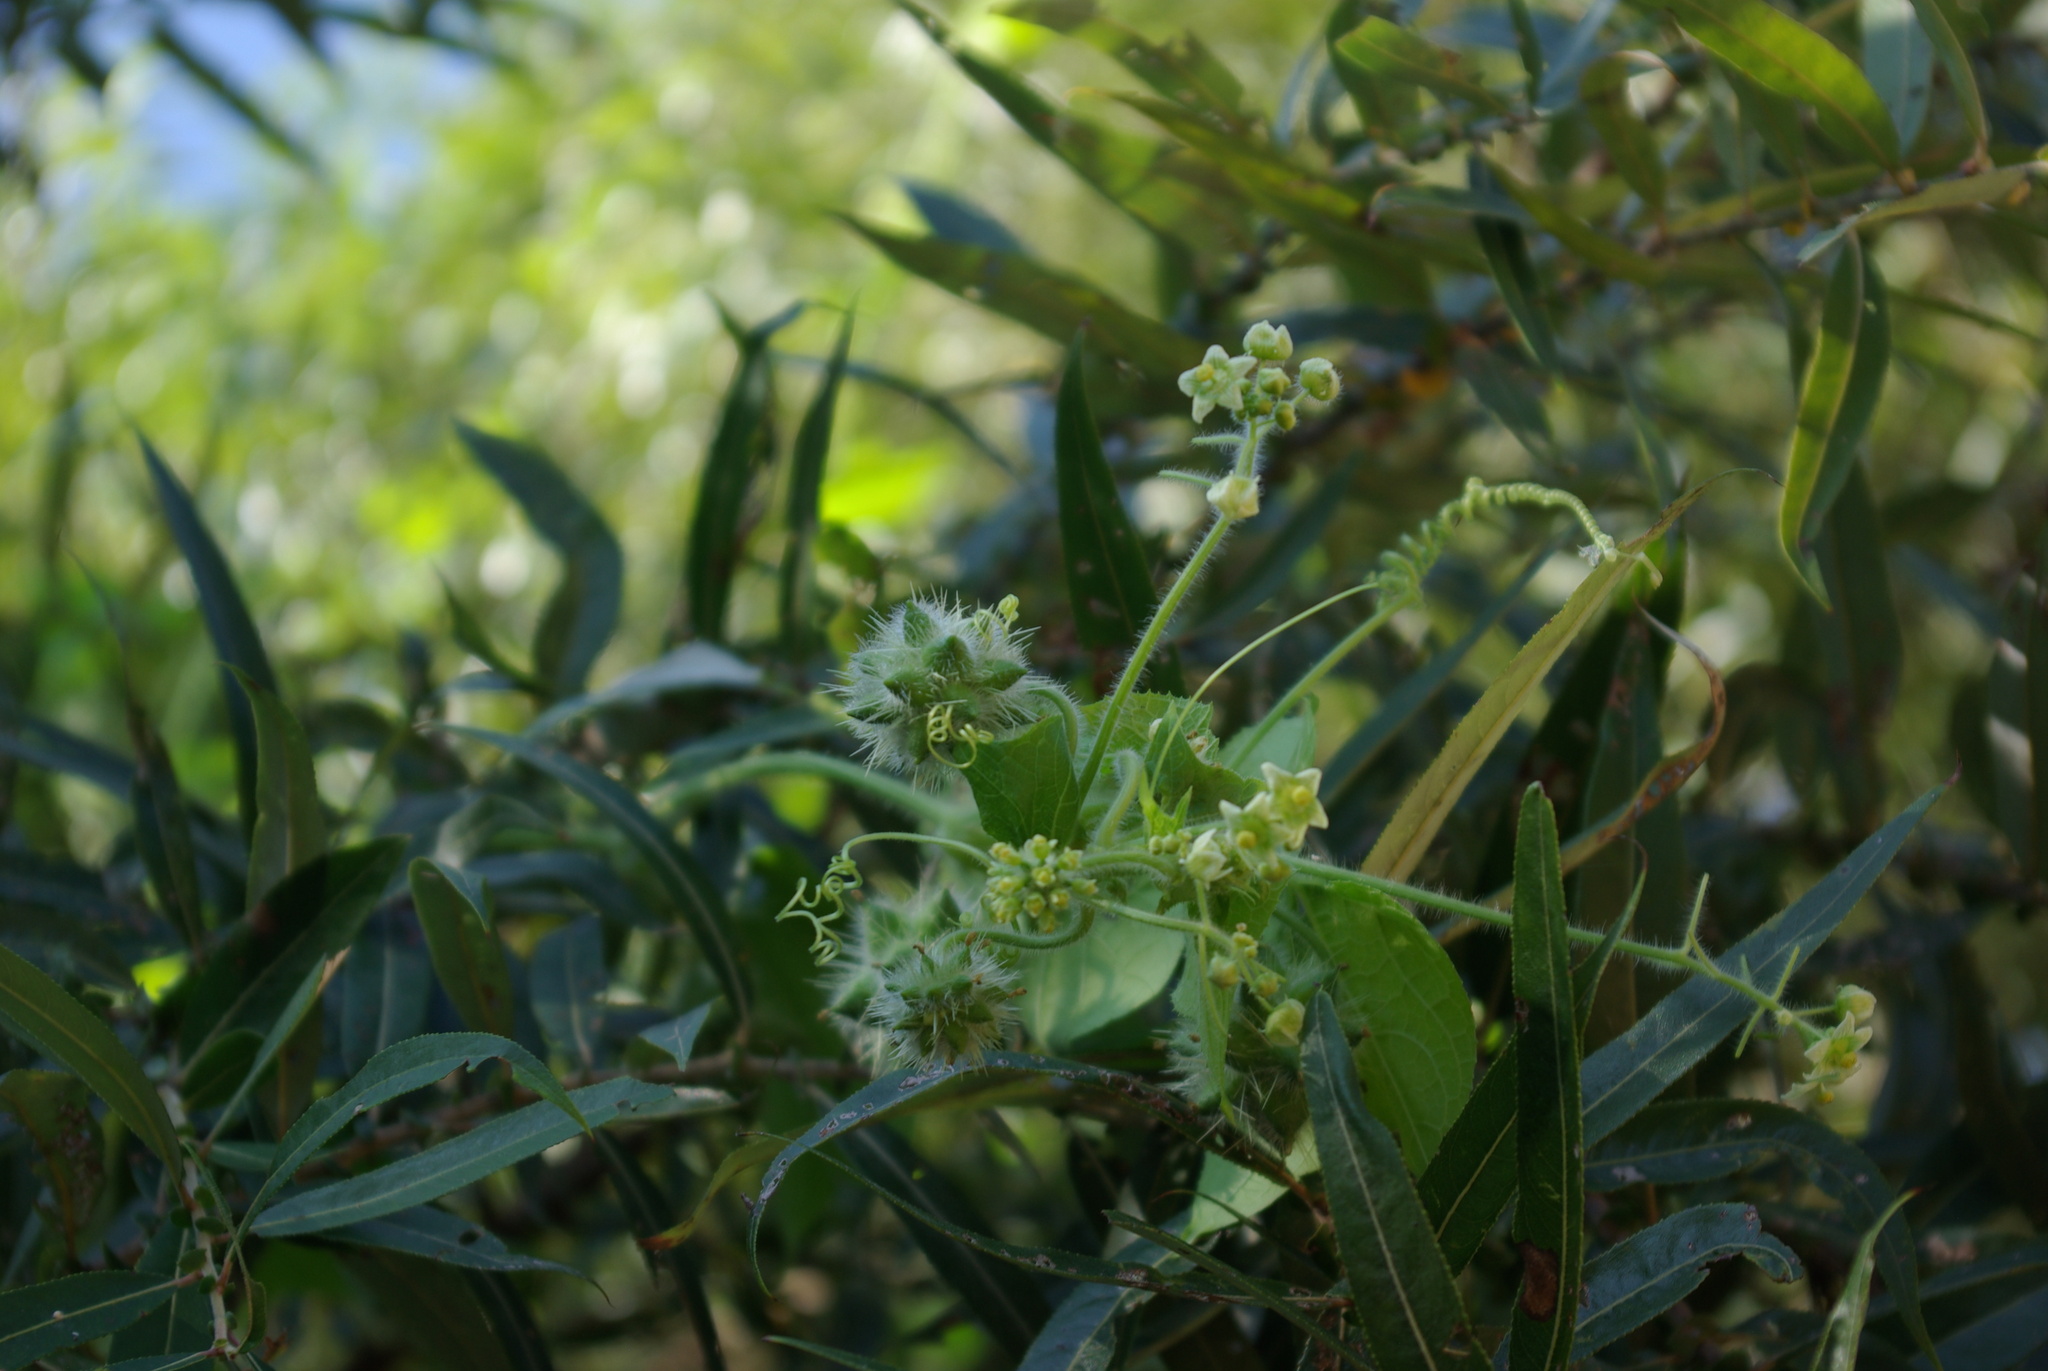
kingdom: Plantae
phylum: Tracheophyta
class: Magnoliopsida
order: Cucurbitales
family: Cucurbitaceae
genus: Sicyos
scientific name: Sicyos angulatus
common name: Angled burr cucumber
